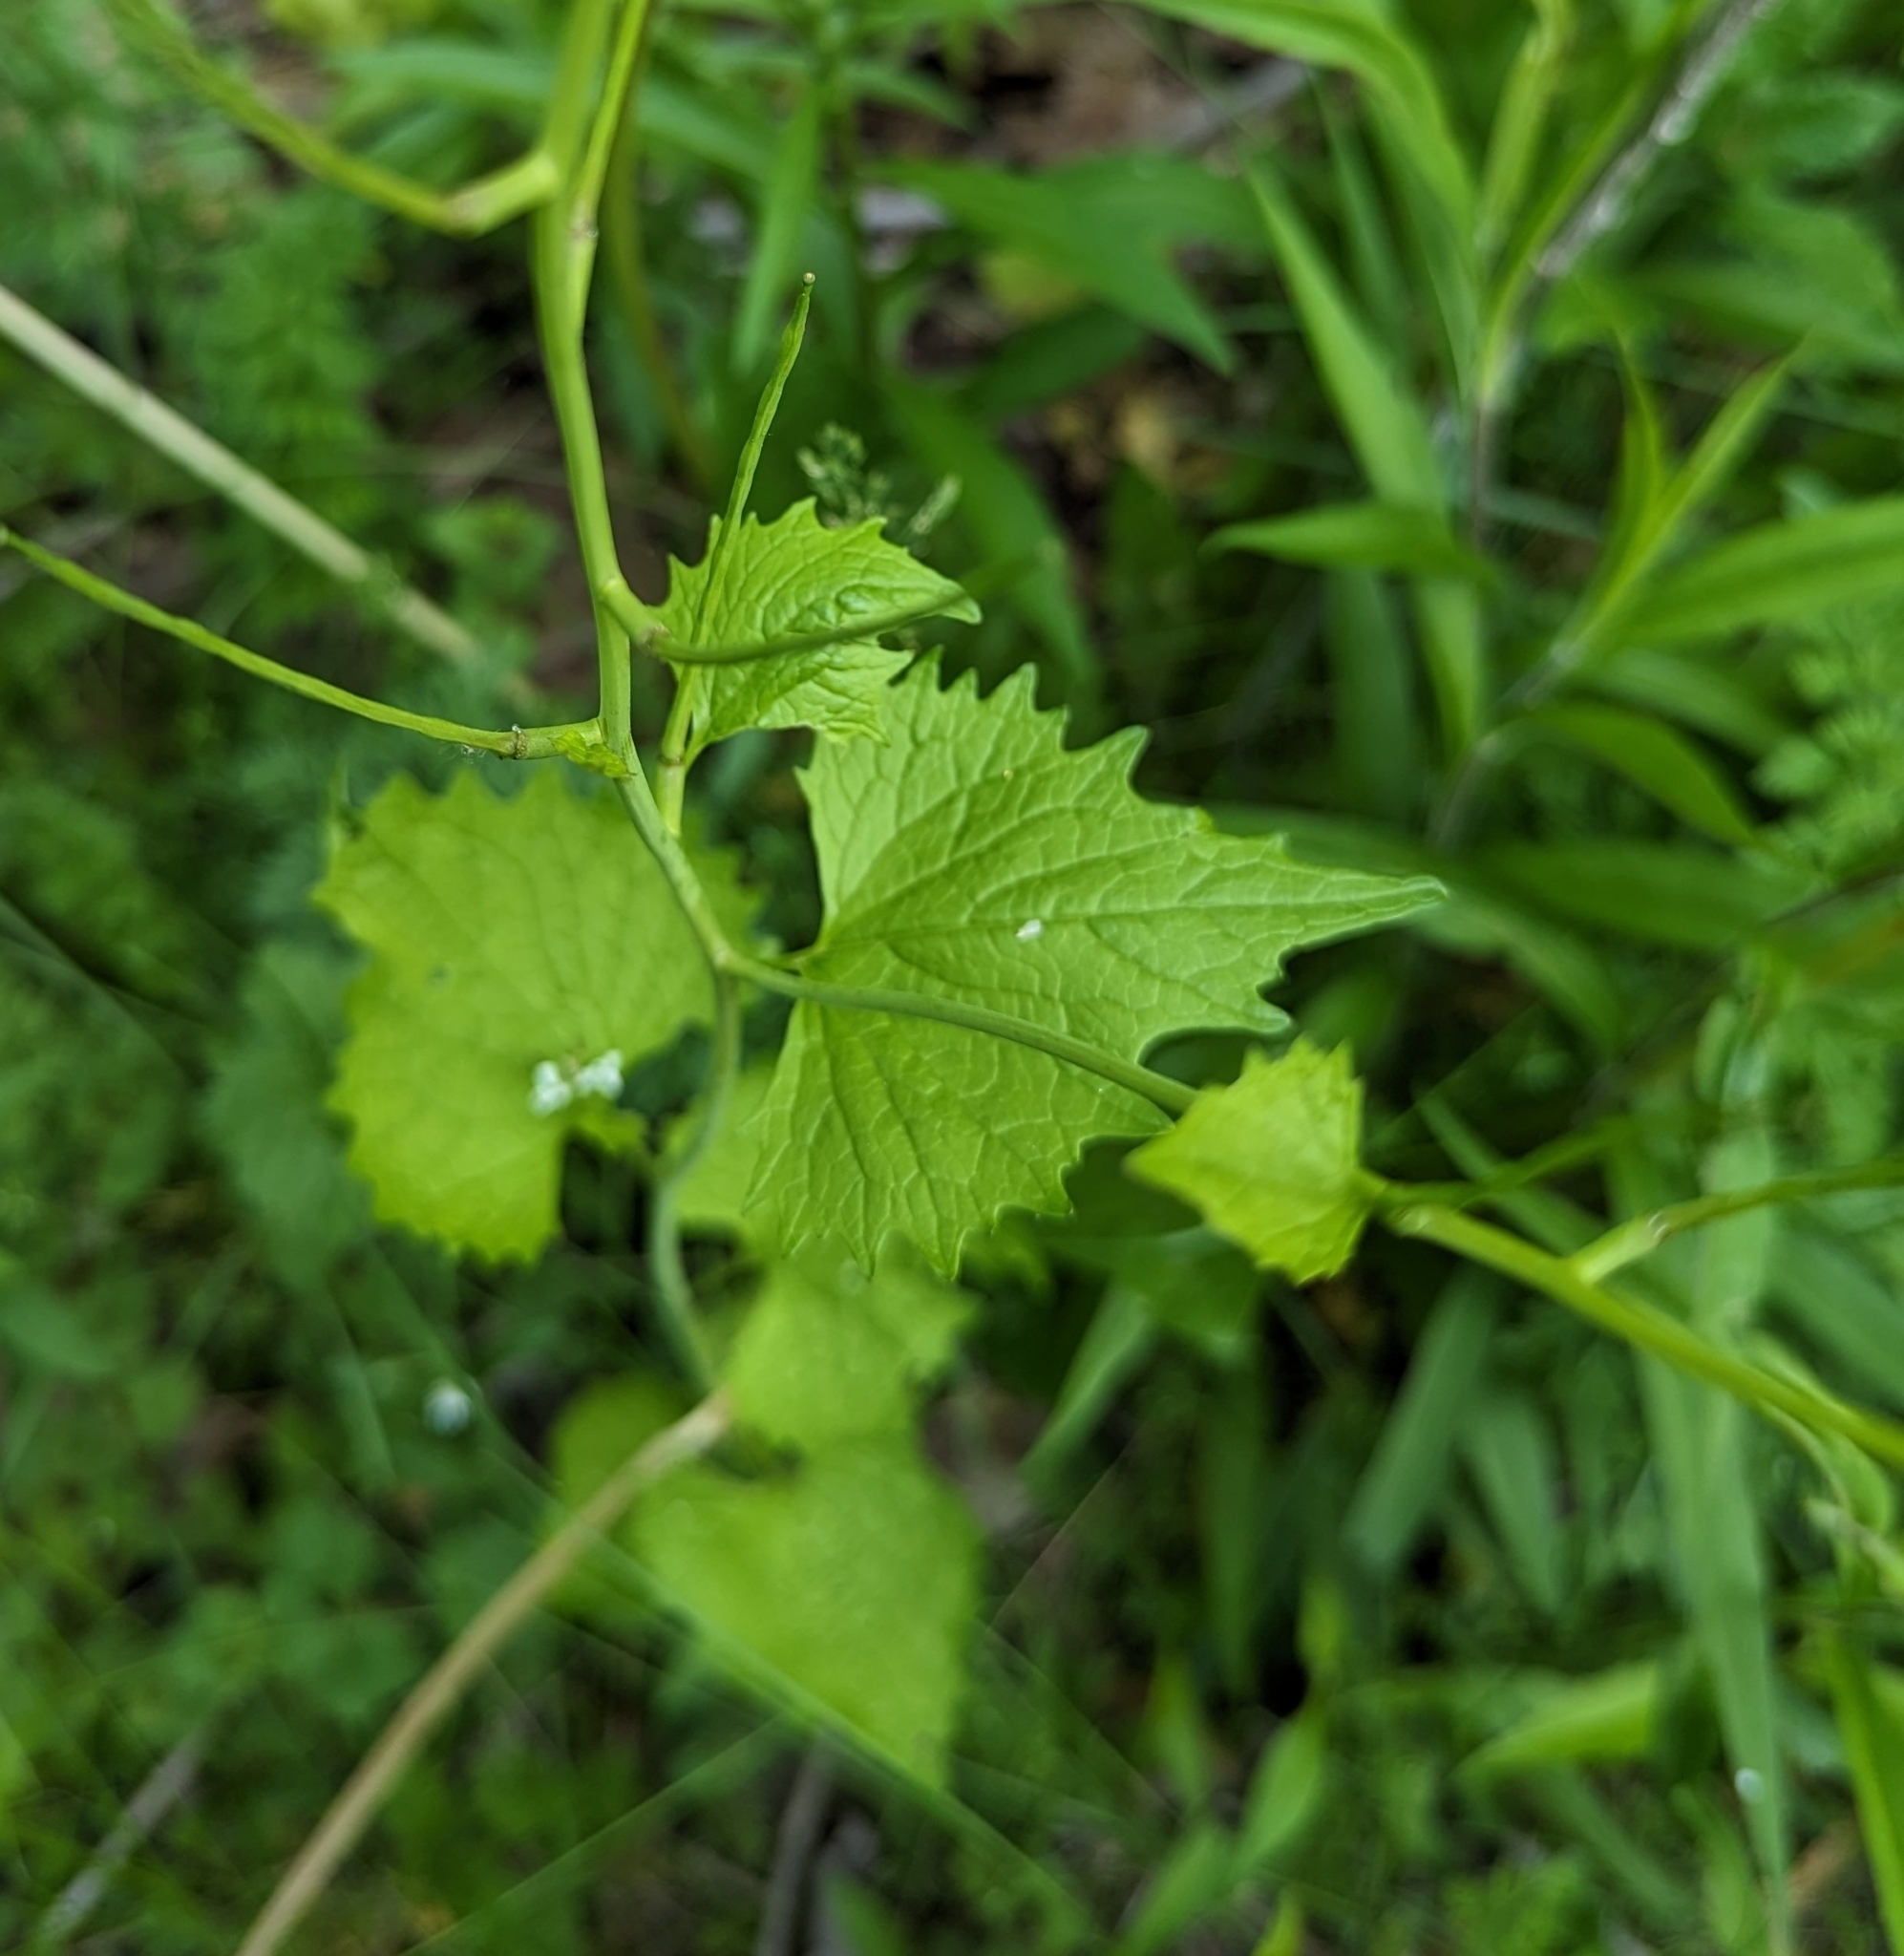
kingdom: Plantae
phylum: Tracheophyta
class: Magnoliopsida
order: Brassicales
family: Brassicaceae
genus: Alliaria
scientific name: Alliaria petiolata
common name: Garlic mustard
